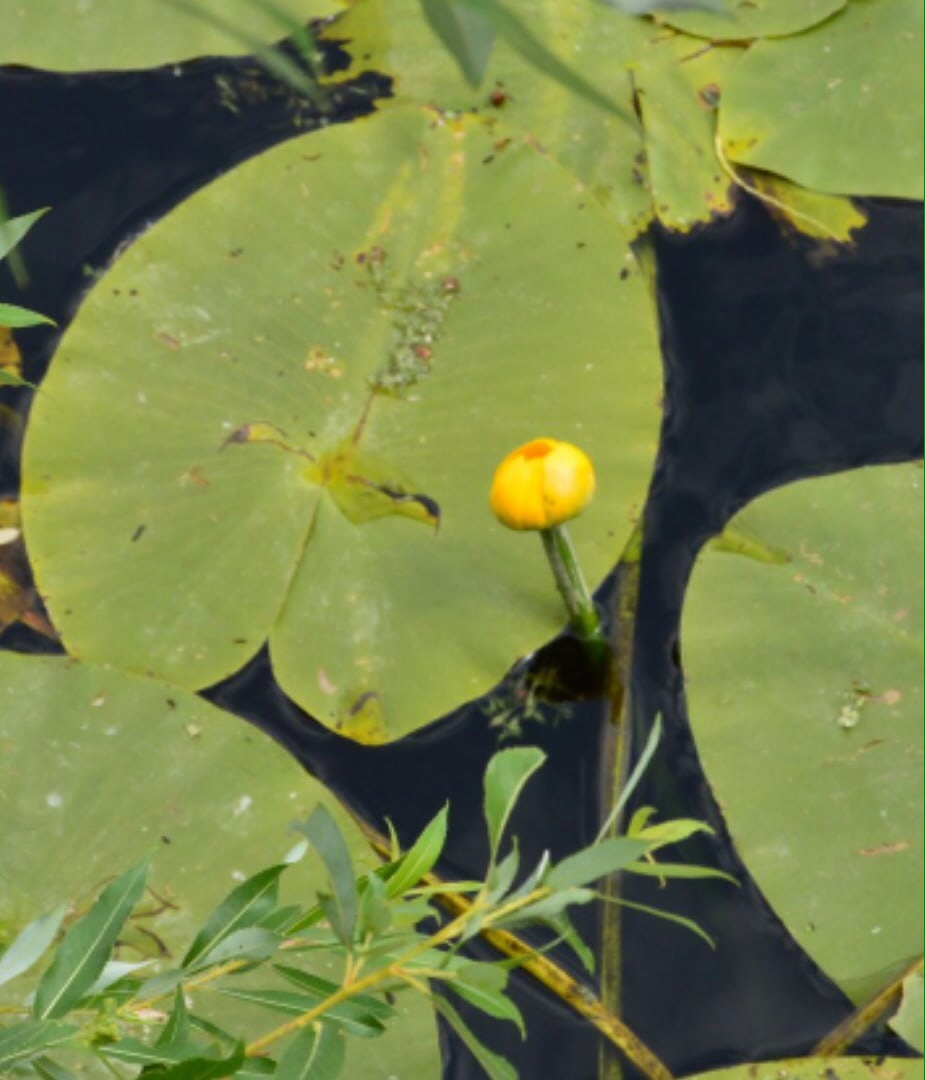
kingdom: Plantae
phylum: Tracheophyta
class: Magnoliopsida
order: Nymphaeales
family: Nymphaeaceae
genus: Nuphar
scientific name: Nuphar lutea
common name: Yellow water-lily
